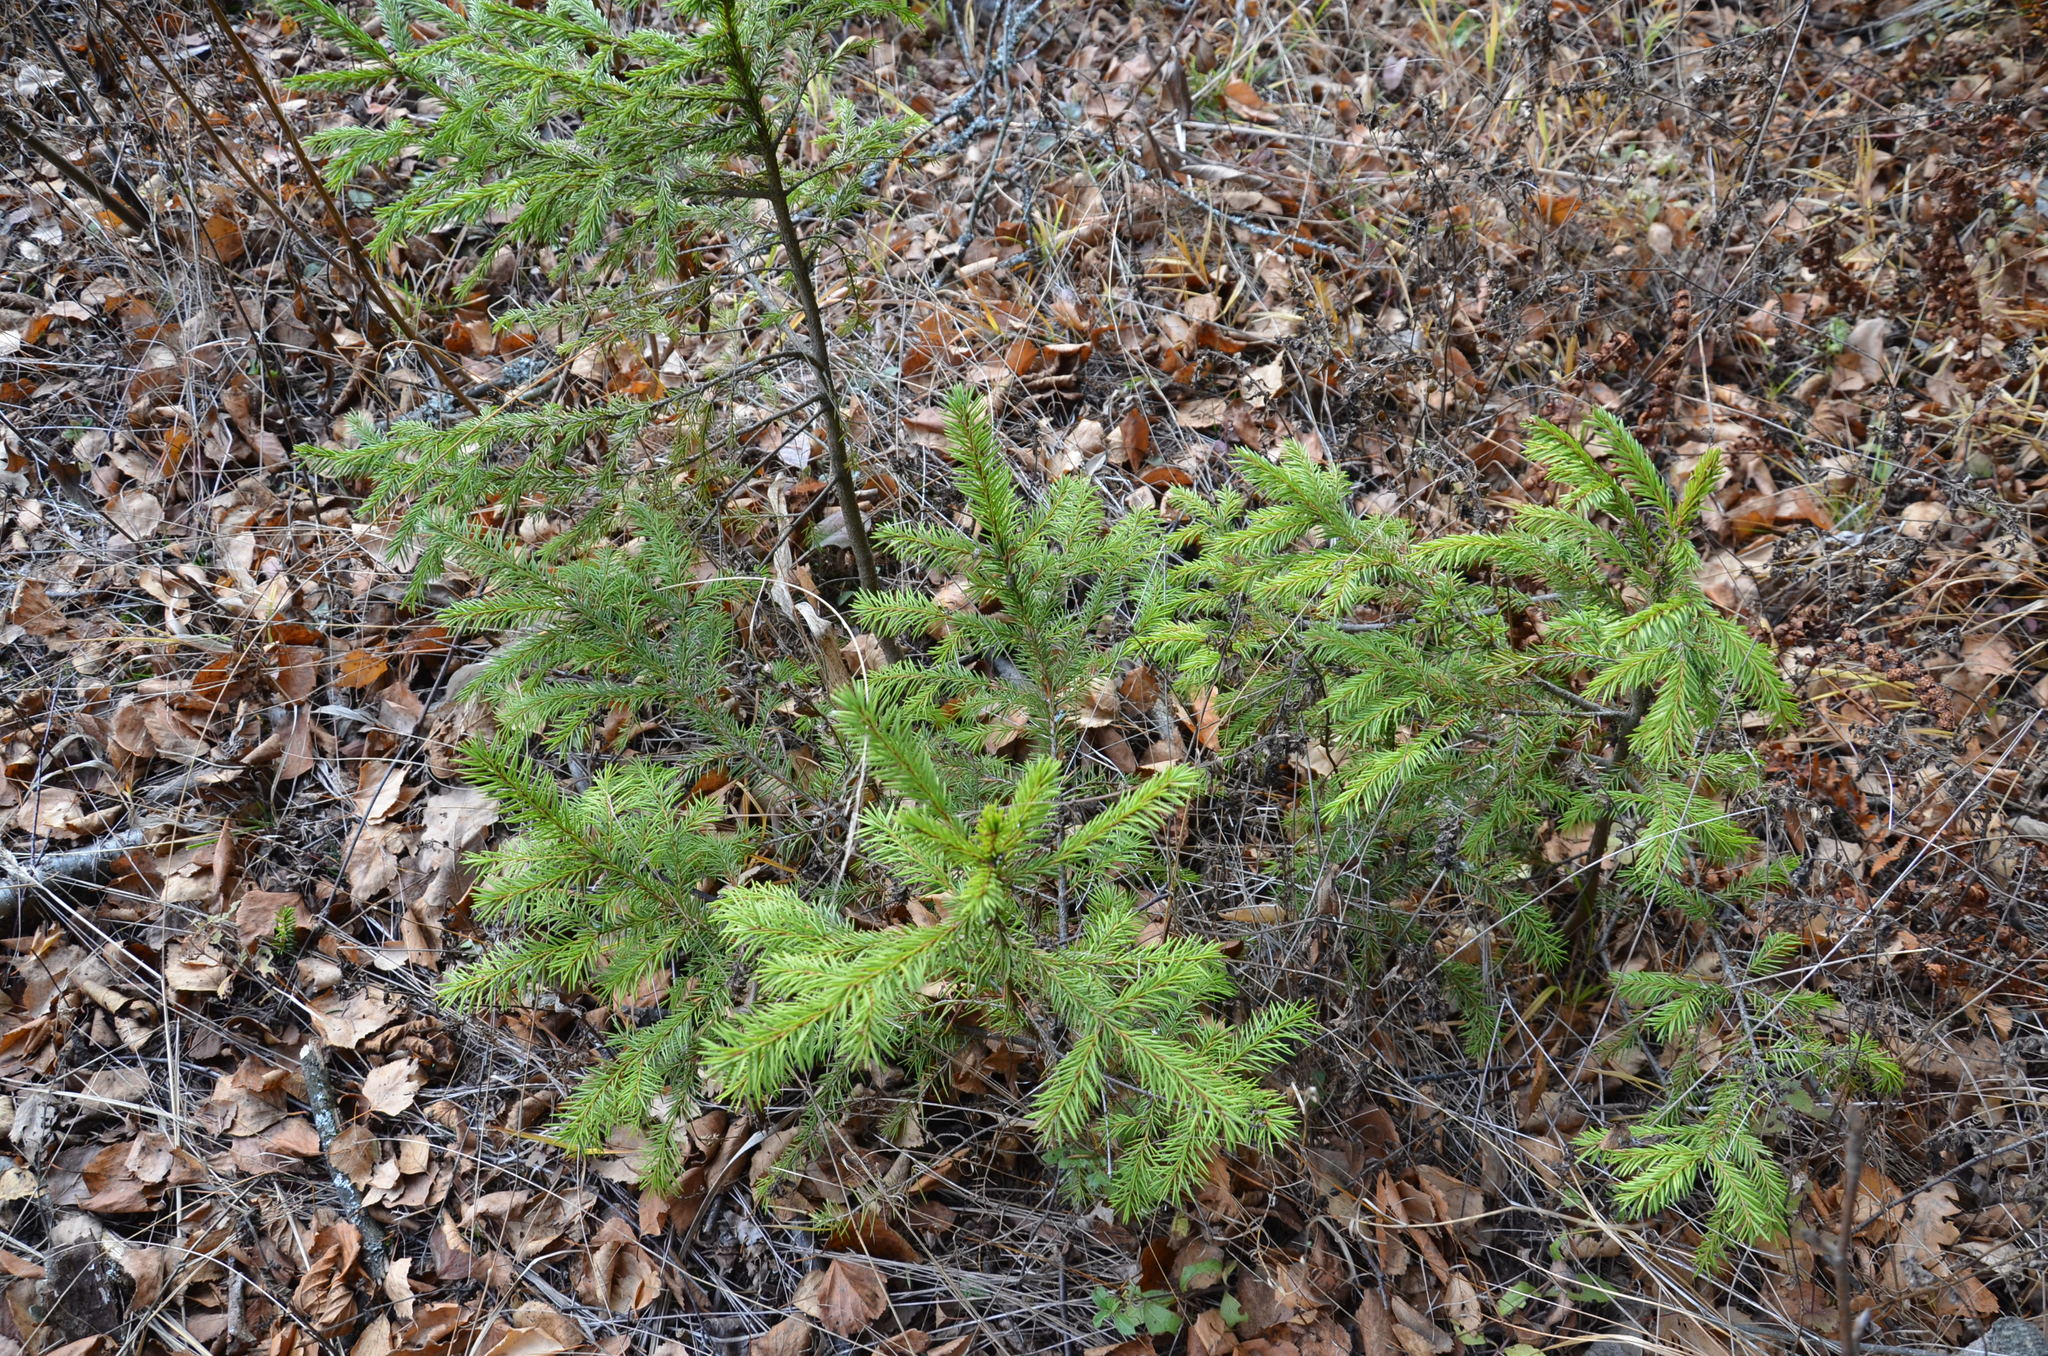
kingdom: Plantae
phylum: Tracheophyta
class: Pinopsida
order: Pinales
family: Pinaceae
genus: Picea
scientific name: Picea abies
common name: Norway spruce
